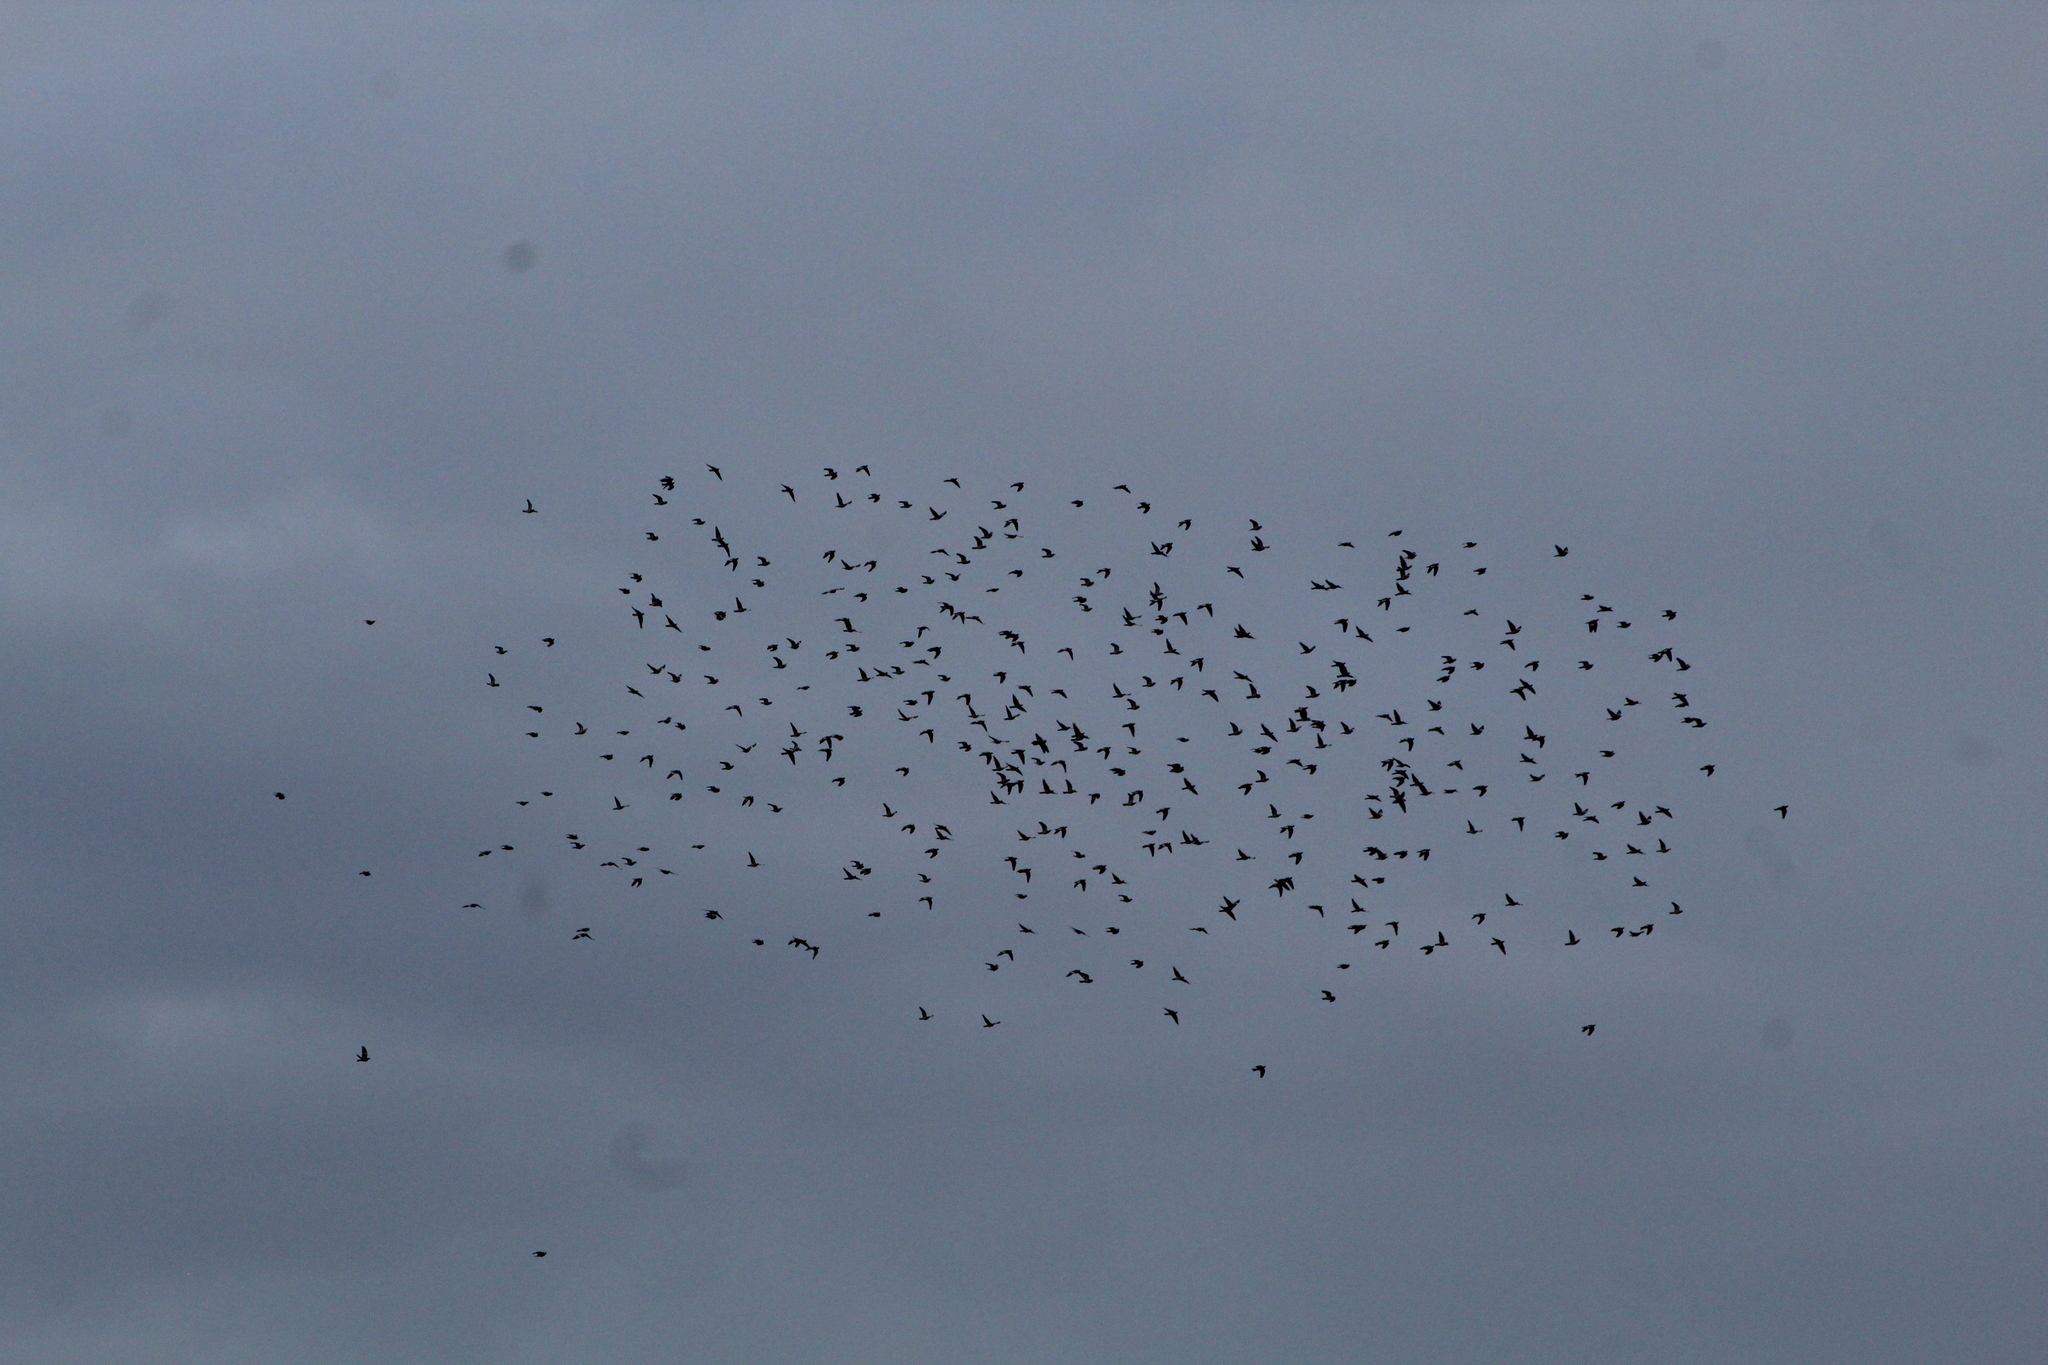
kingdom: Animalia
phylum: Chordata
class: Aves
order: Columbiformes
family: Columbidae
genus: Columba
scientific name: Columba palumbus
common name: Common wood pigeon
